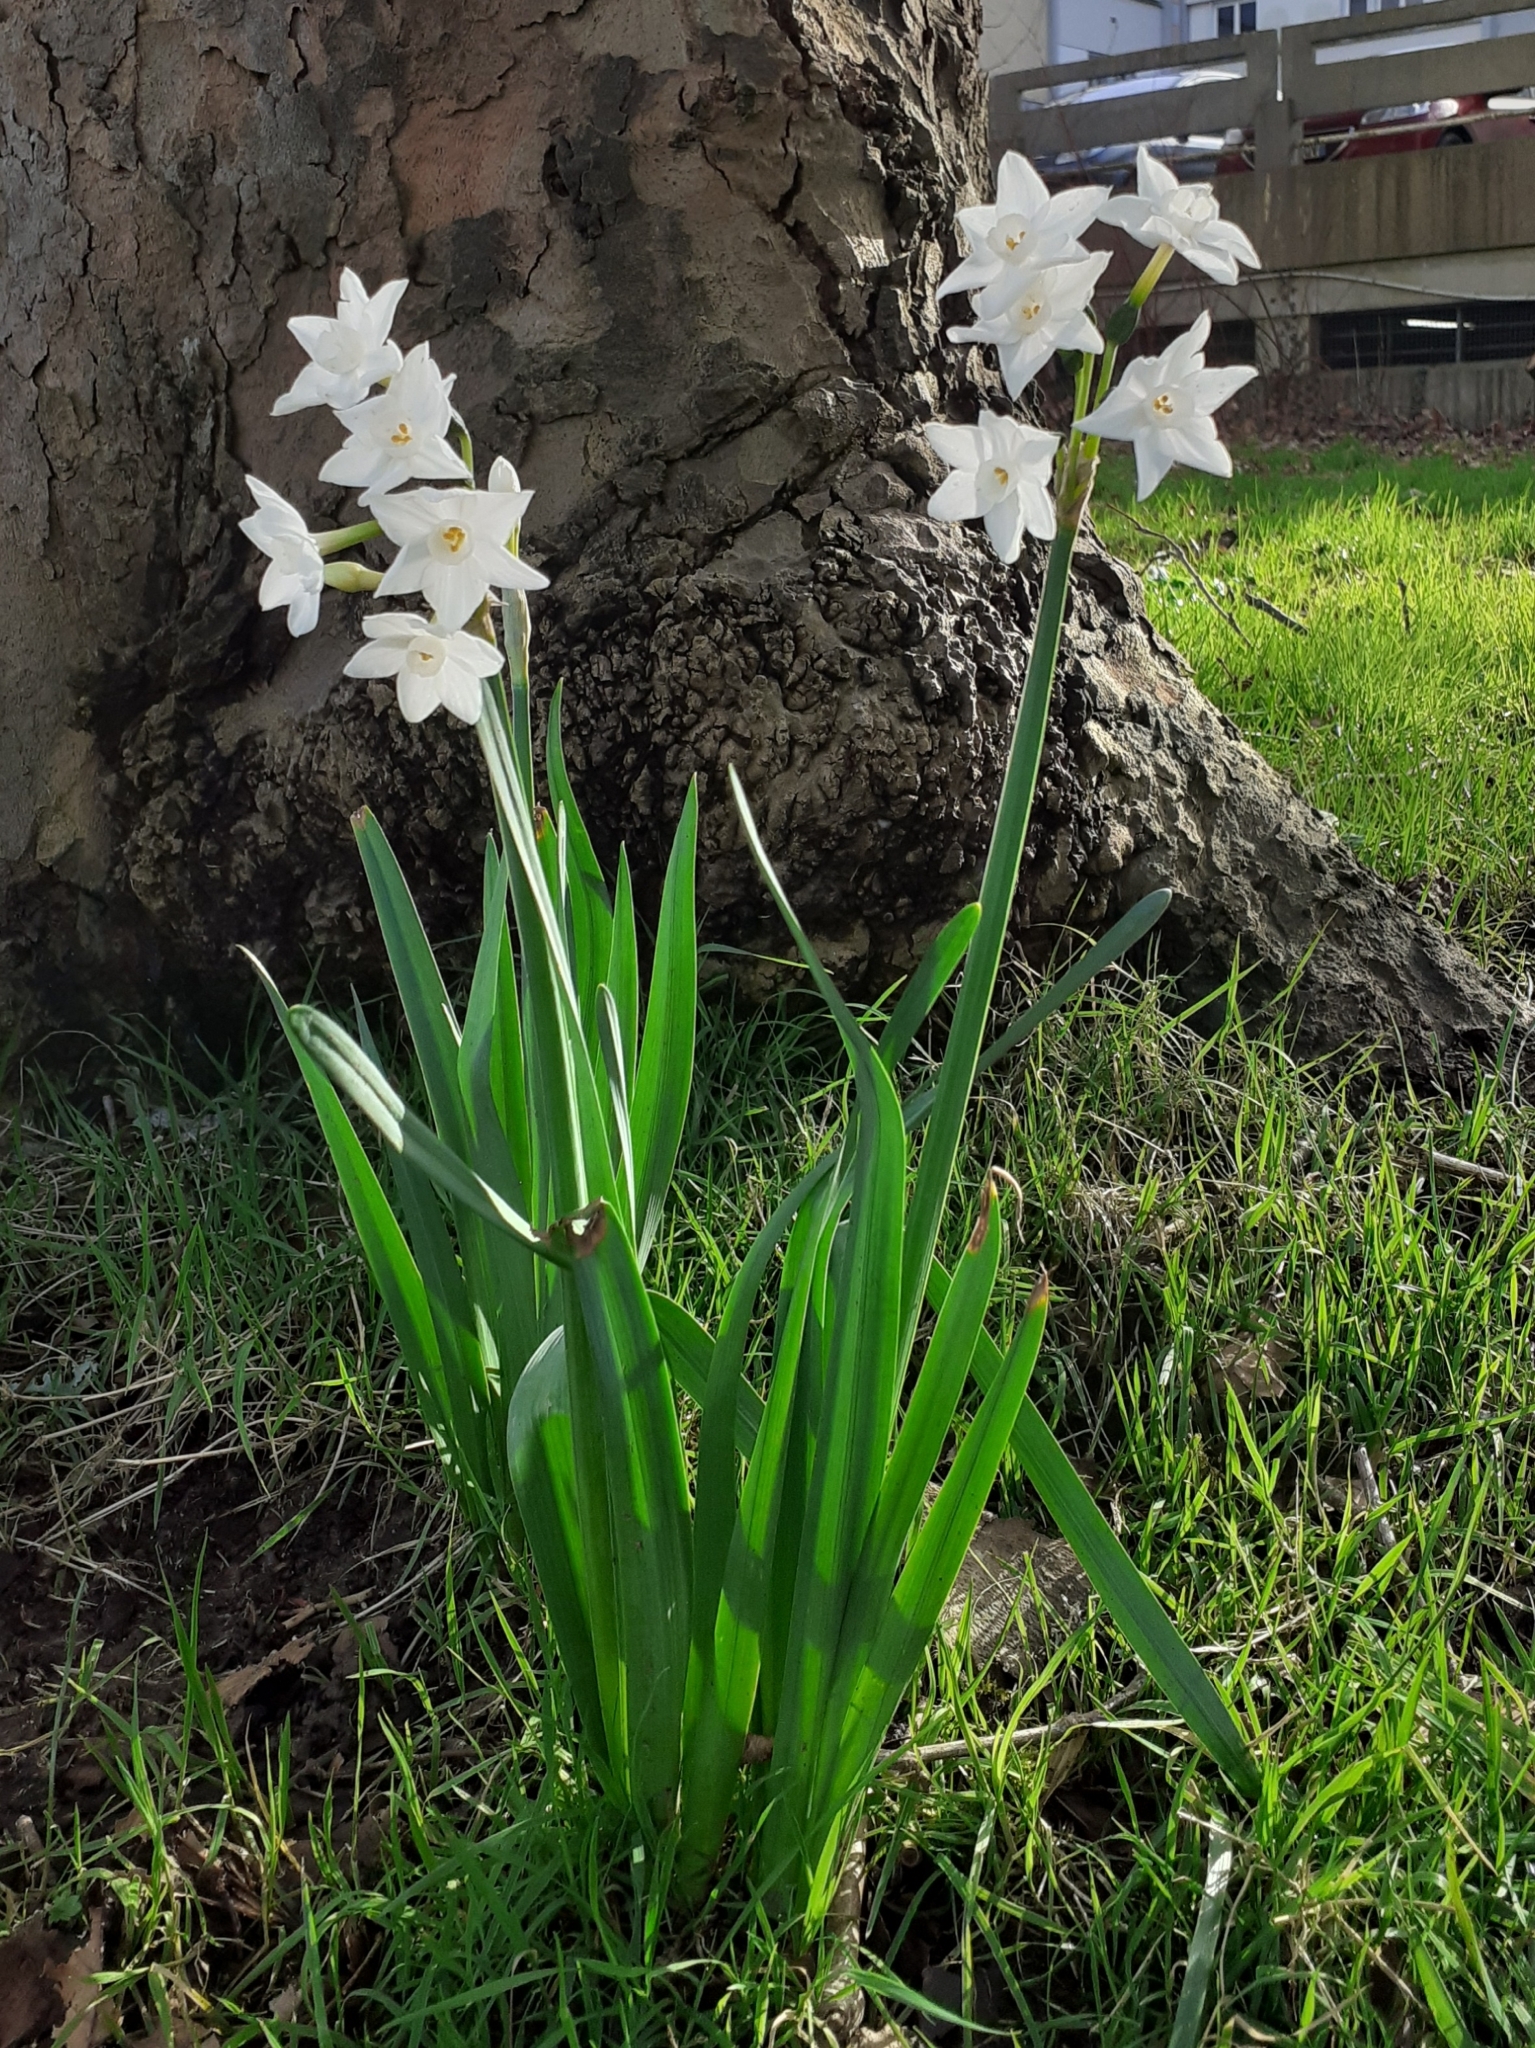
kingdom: Plantae
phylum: Tracheophyta
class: Liliopsida
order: Asparagales
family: Amaryllidaceae
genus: Narcissus
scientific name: Narcissus papyraceus
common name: Paper-white daffodil
